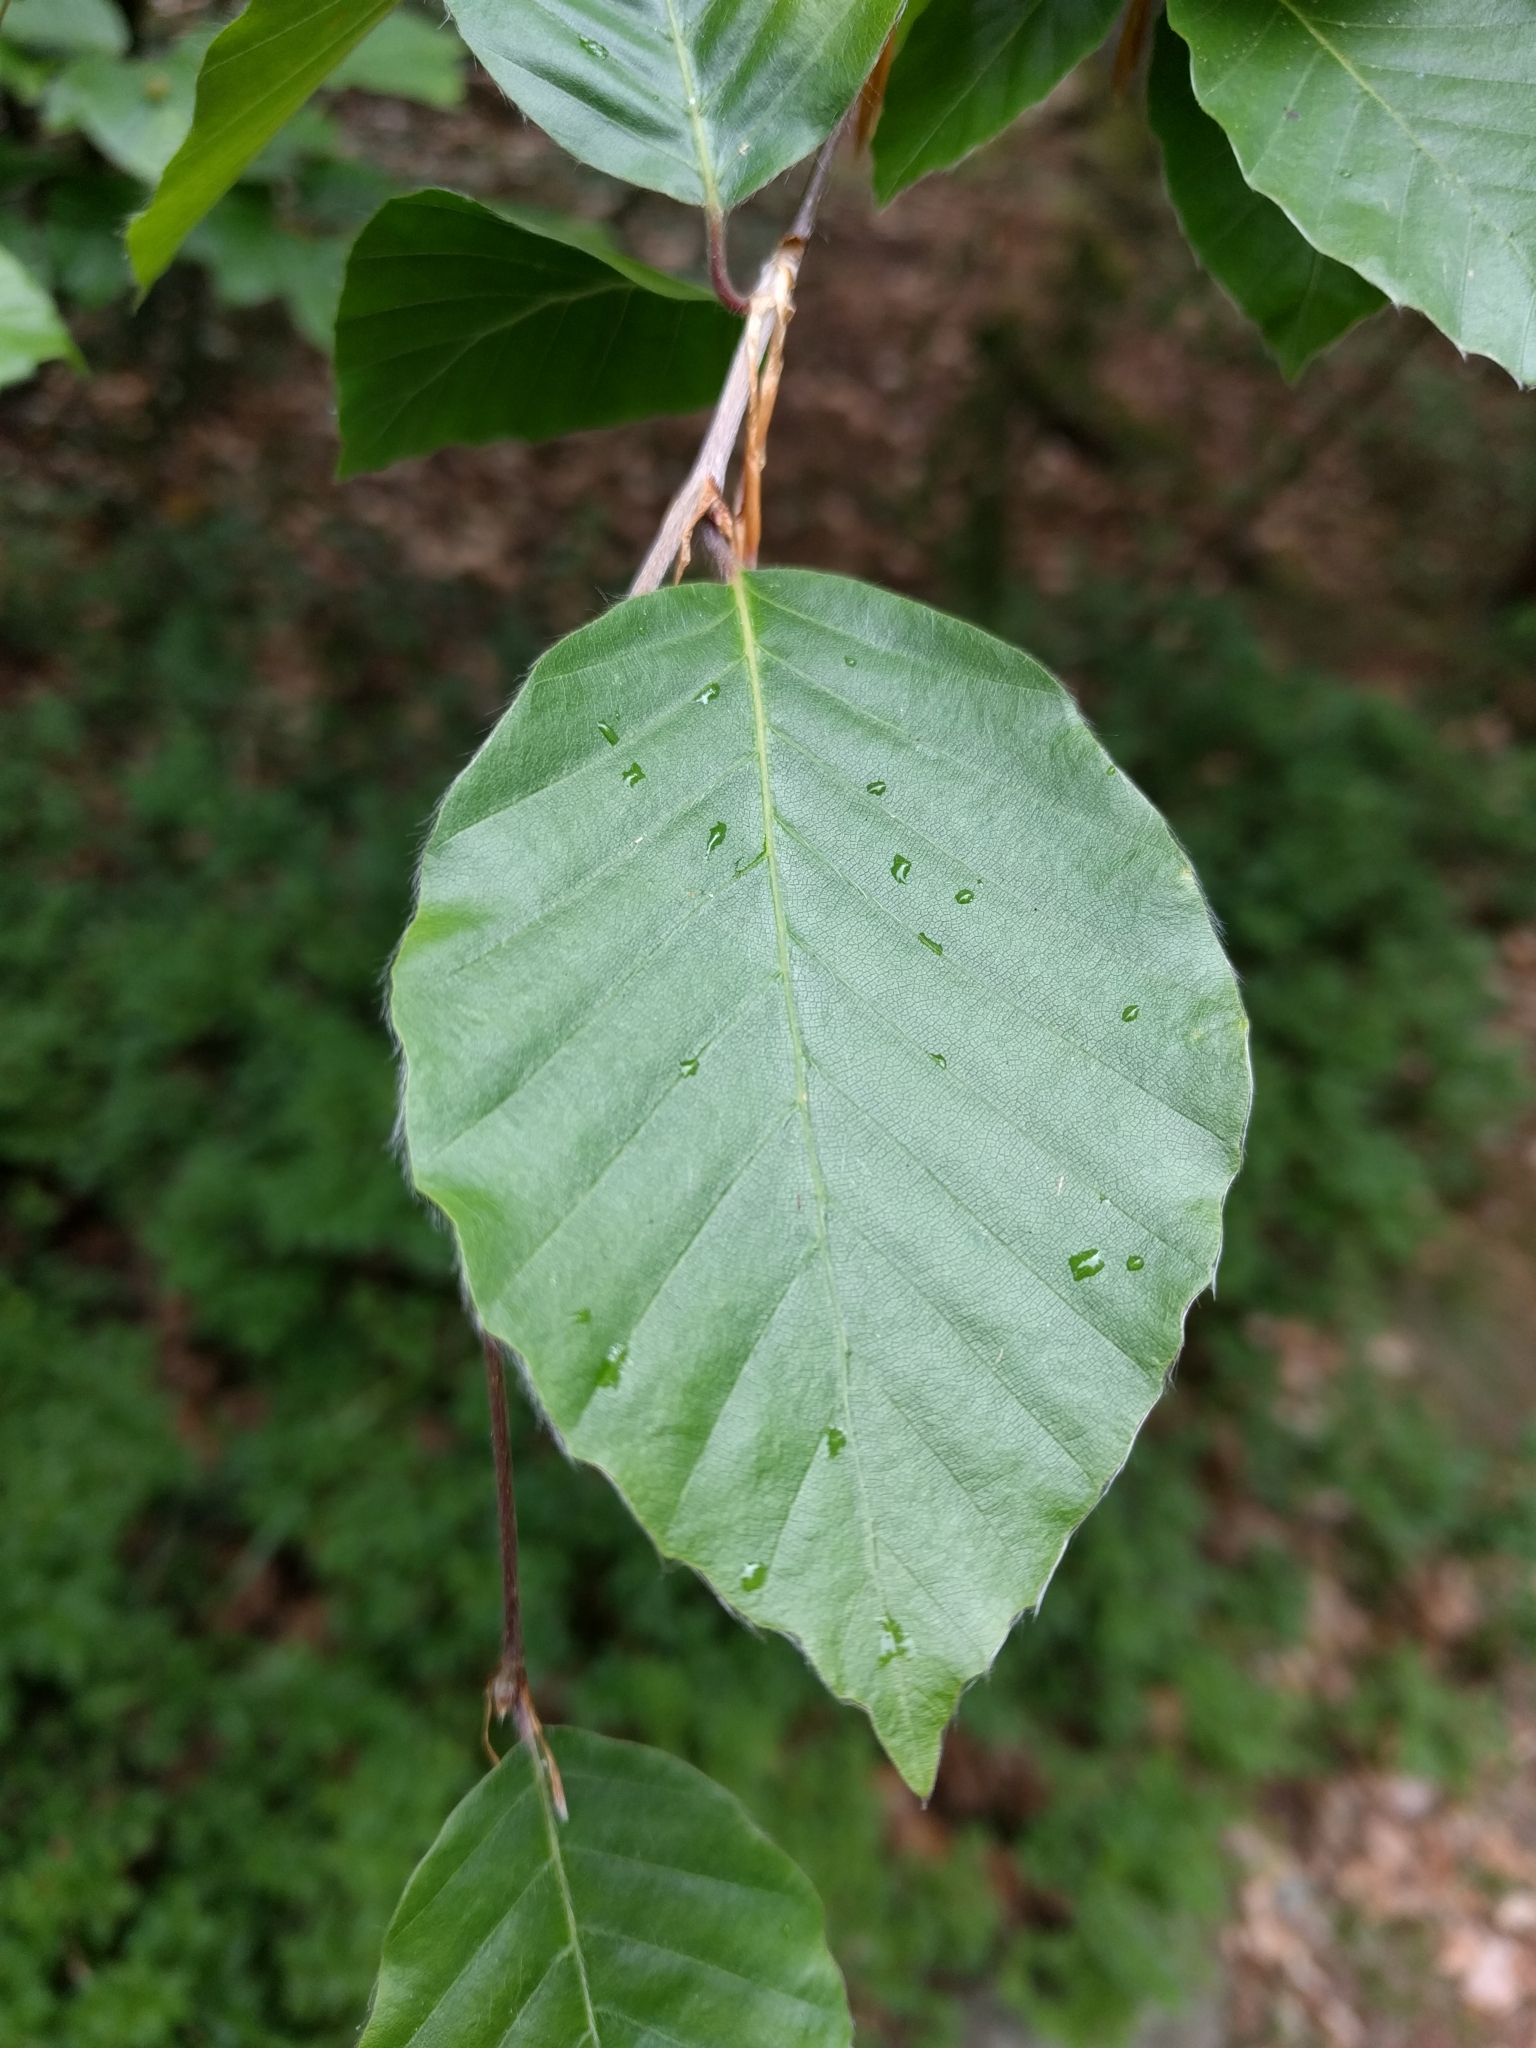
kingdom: Plantae
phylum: Tracheophyta
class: Magnoliopsida
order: Fagales
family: Fagaceae
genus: Fagus
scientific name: Fagus sylvatica
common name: Beech
